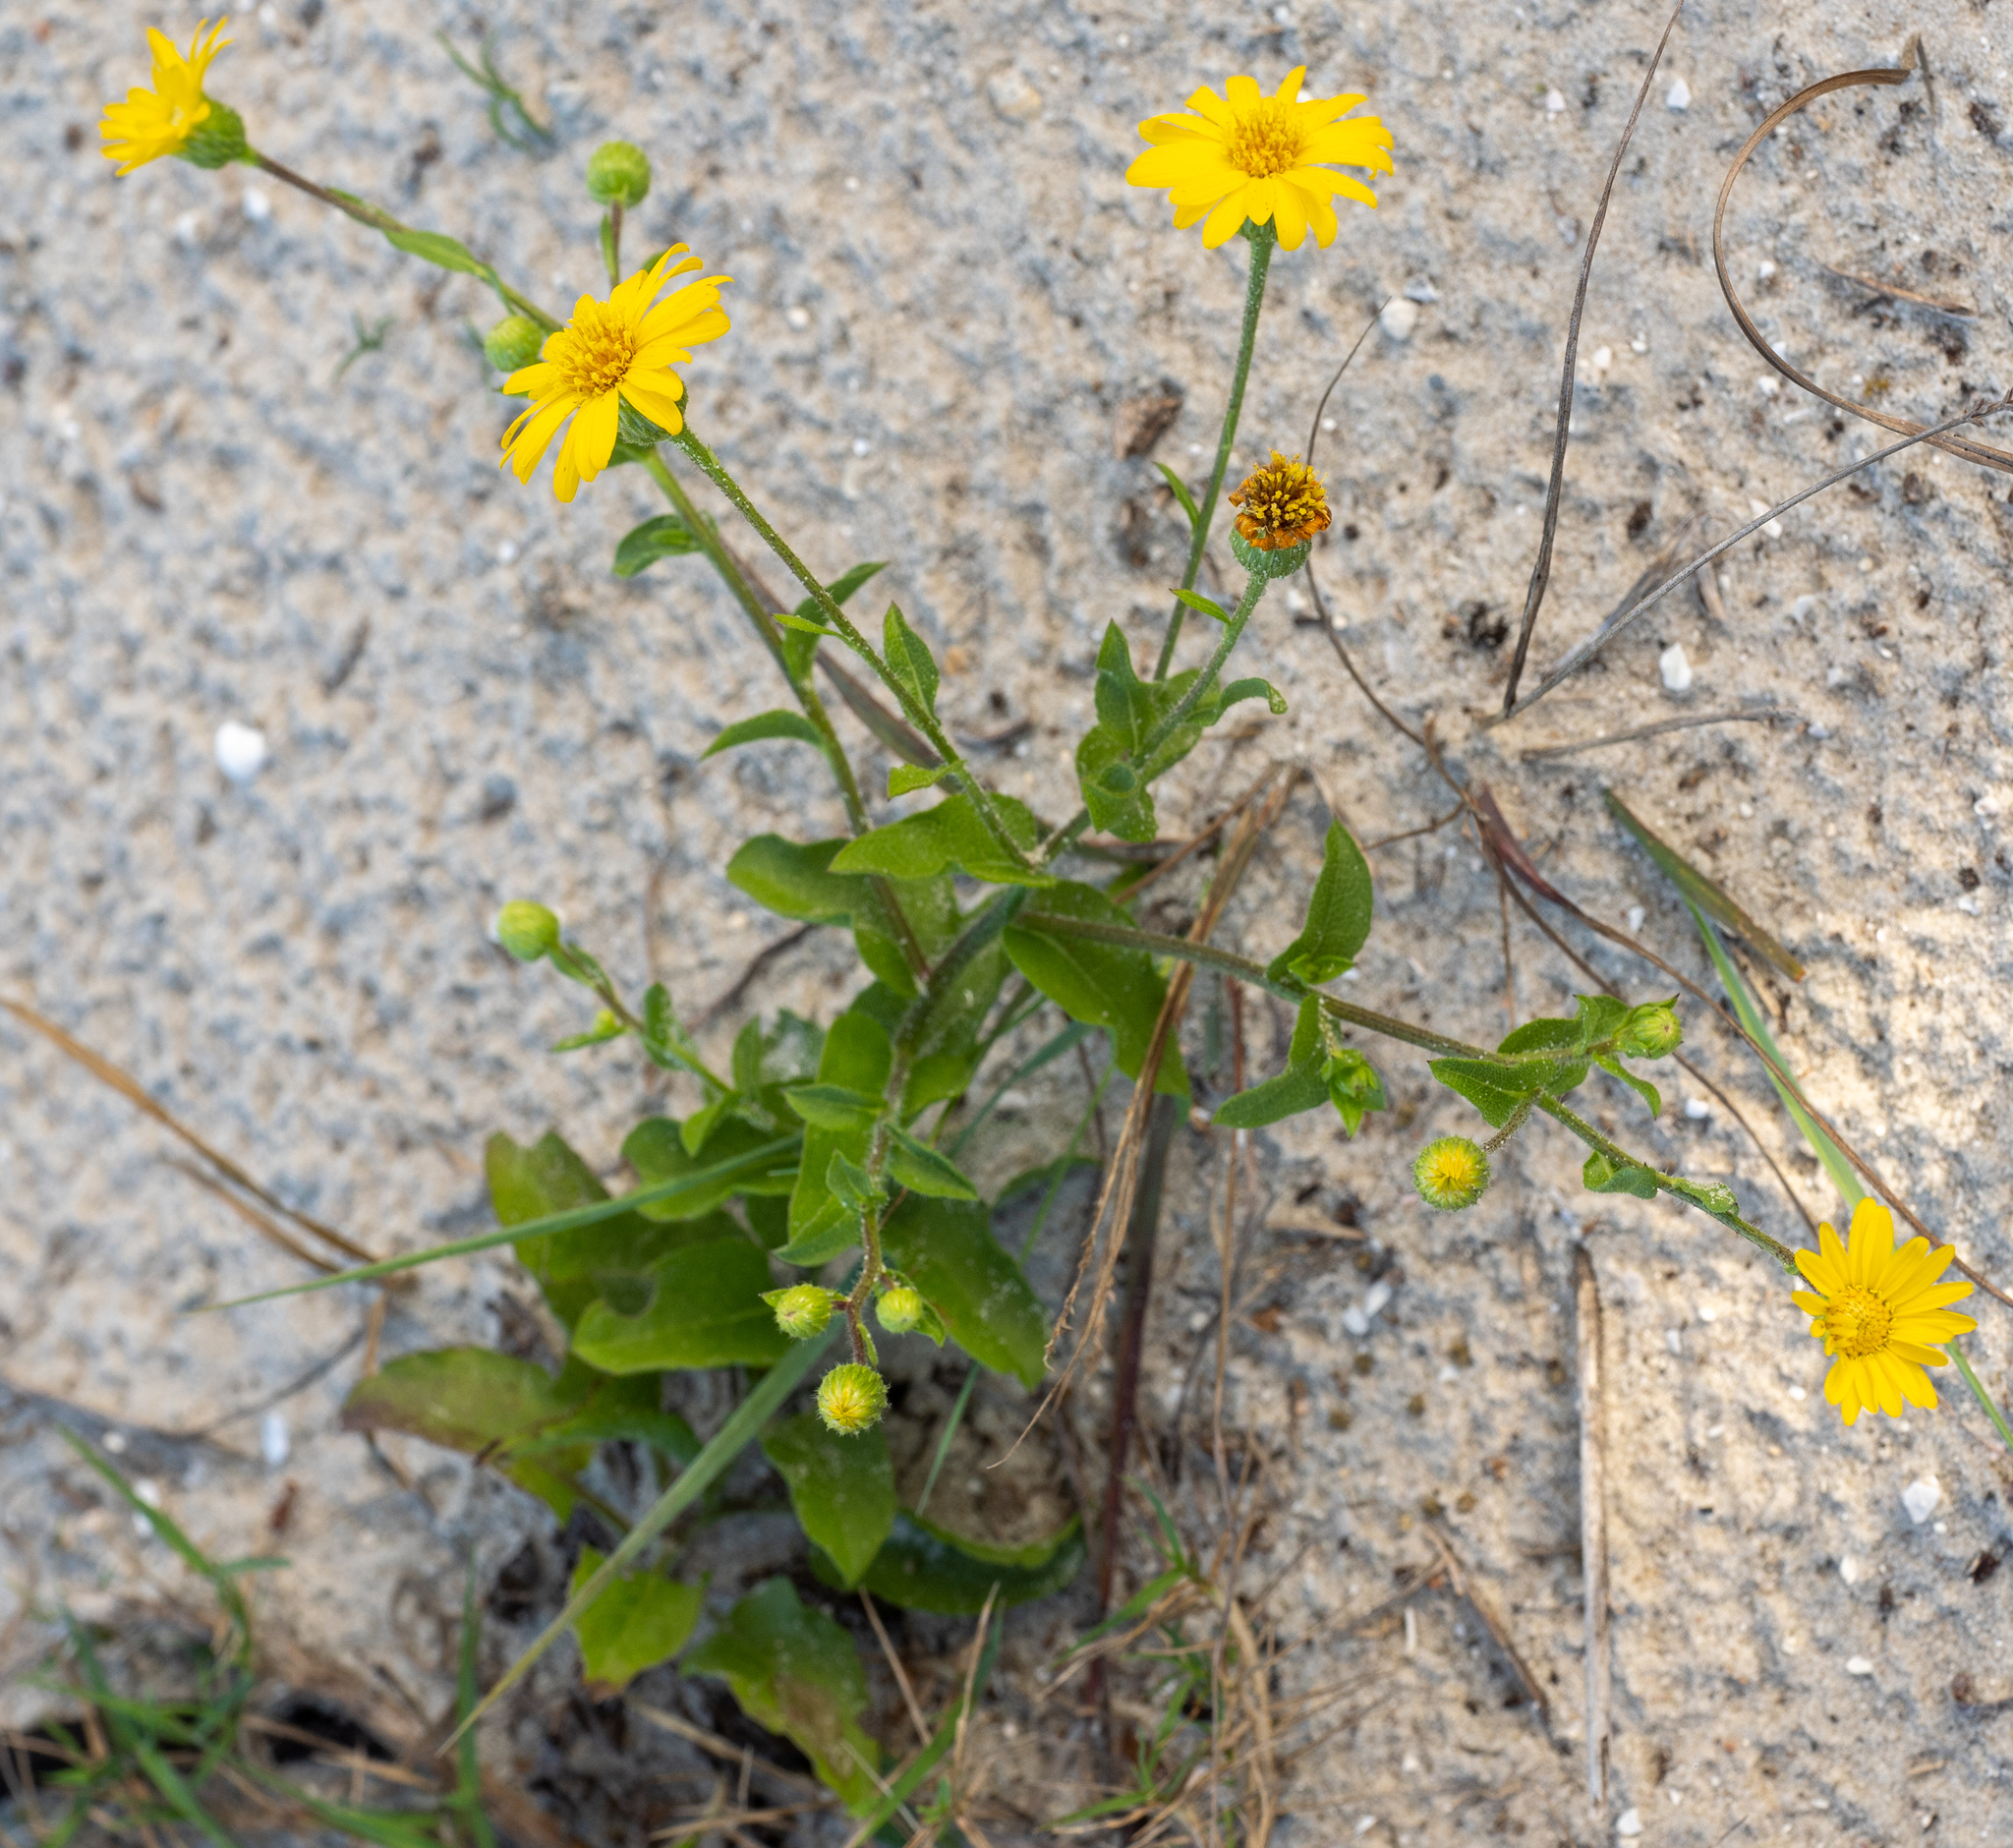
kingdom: Plantae
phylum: Tracheophyta
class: Magnoliopsida
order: Asterales
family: Asteraceae
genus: Heterotheca
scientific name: Heterotheca subaxillaris
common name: Camphorweed
